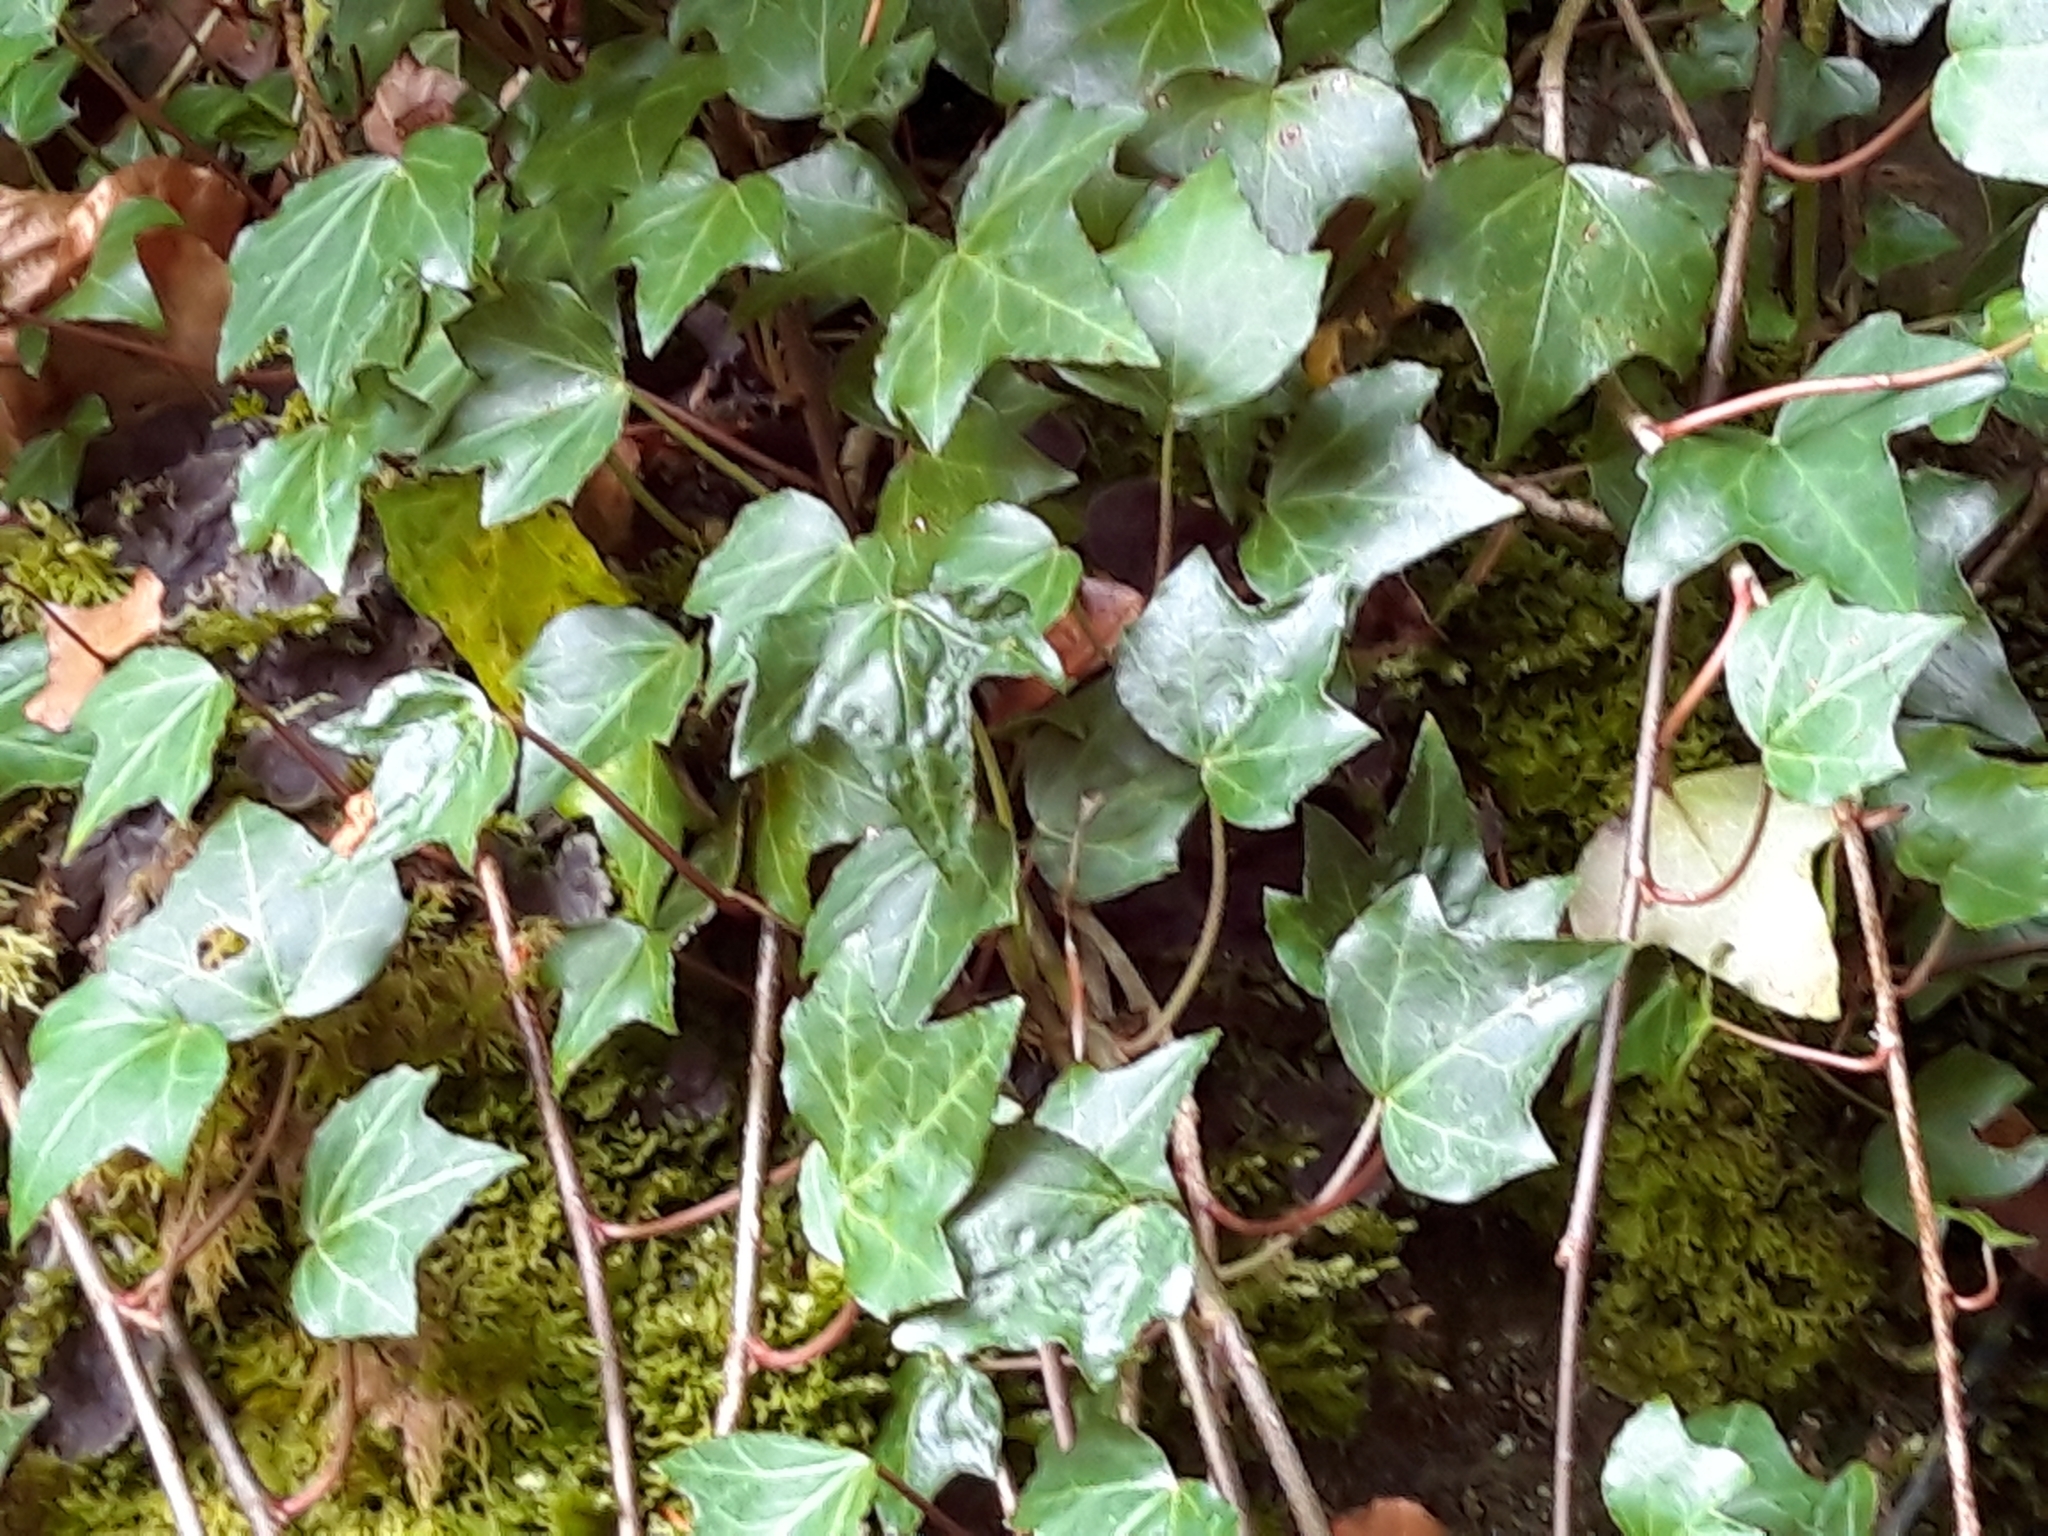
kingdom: Plantae
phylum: Tracheophyta
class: Magnoliopsida
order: Apiales
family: Araliaceae
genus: Hedera
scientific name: Hedera helix
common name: Ivy
